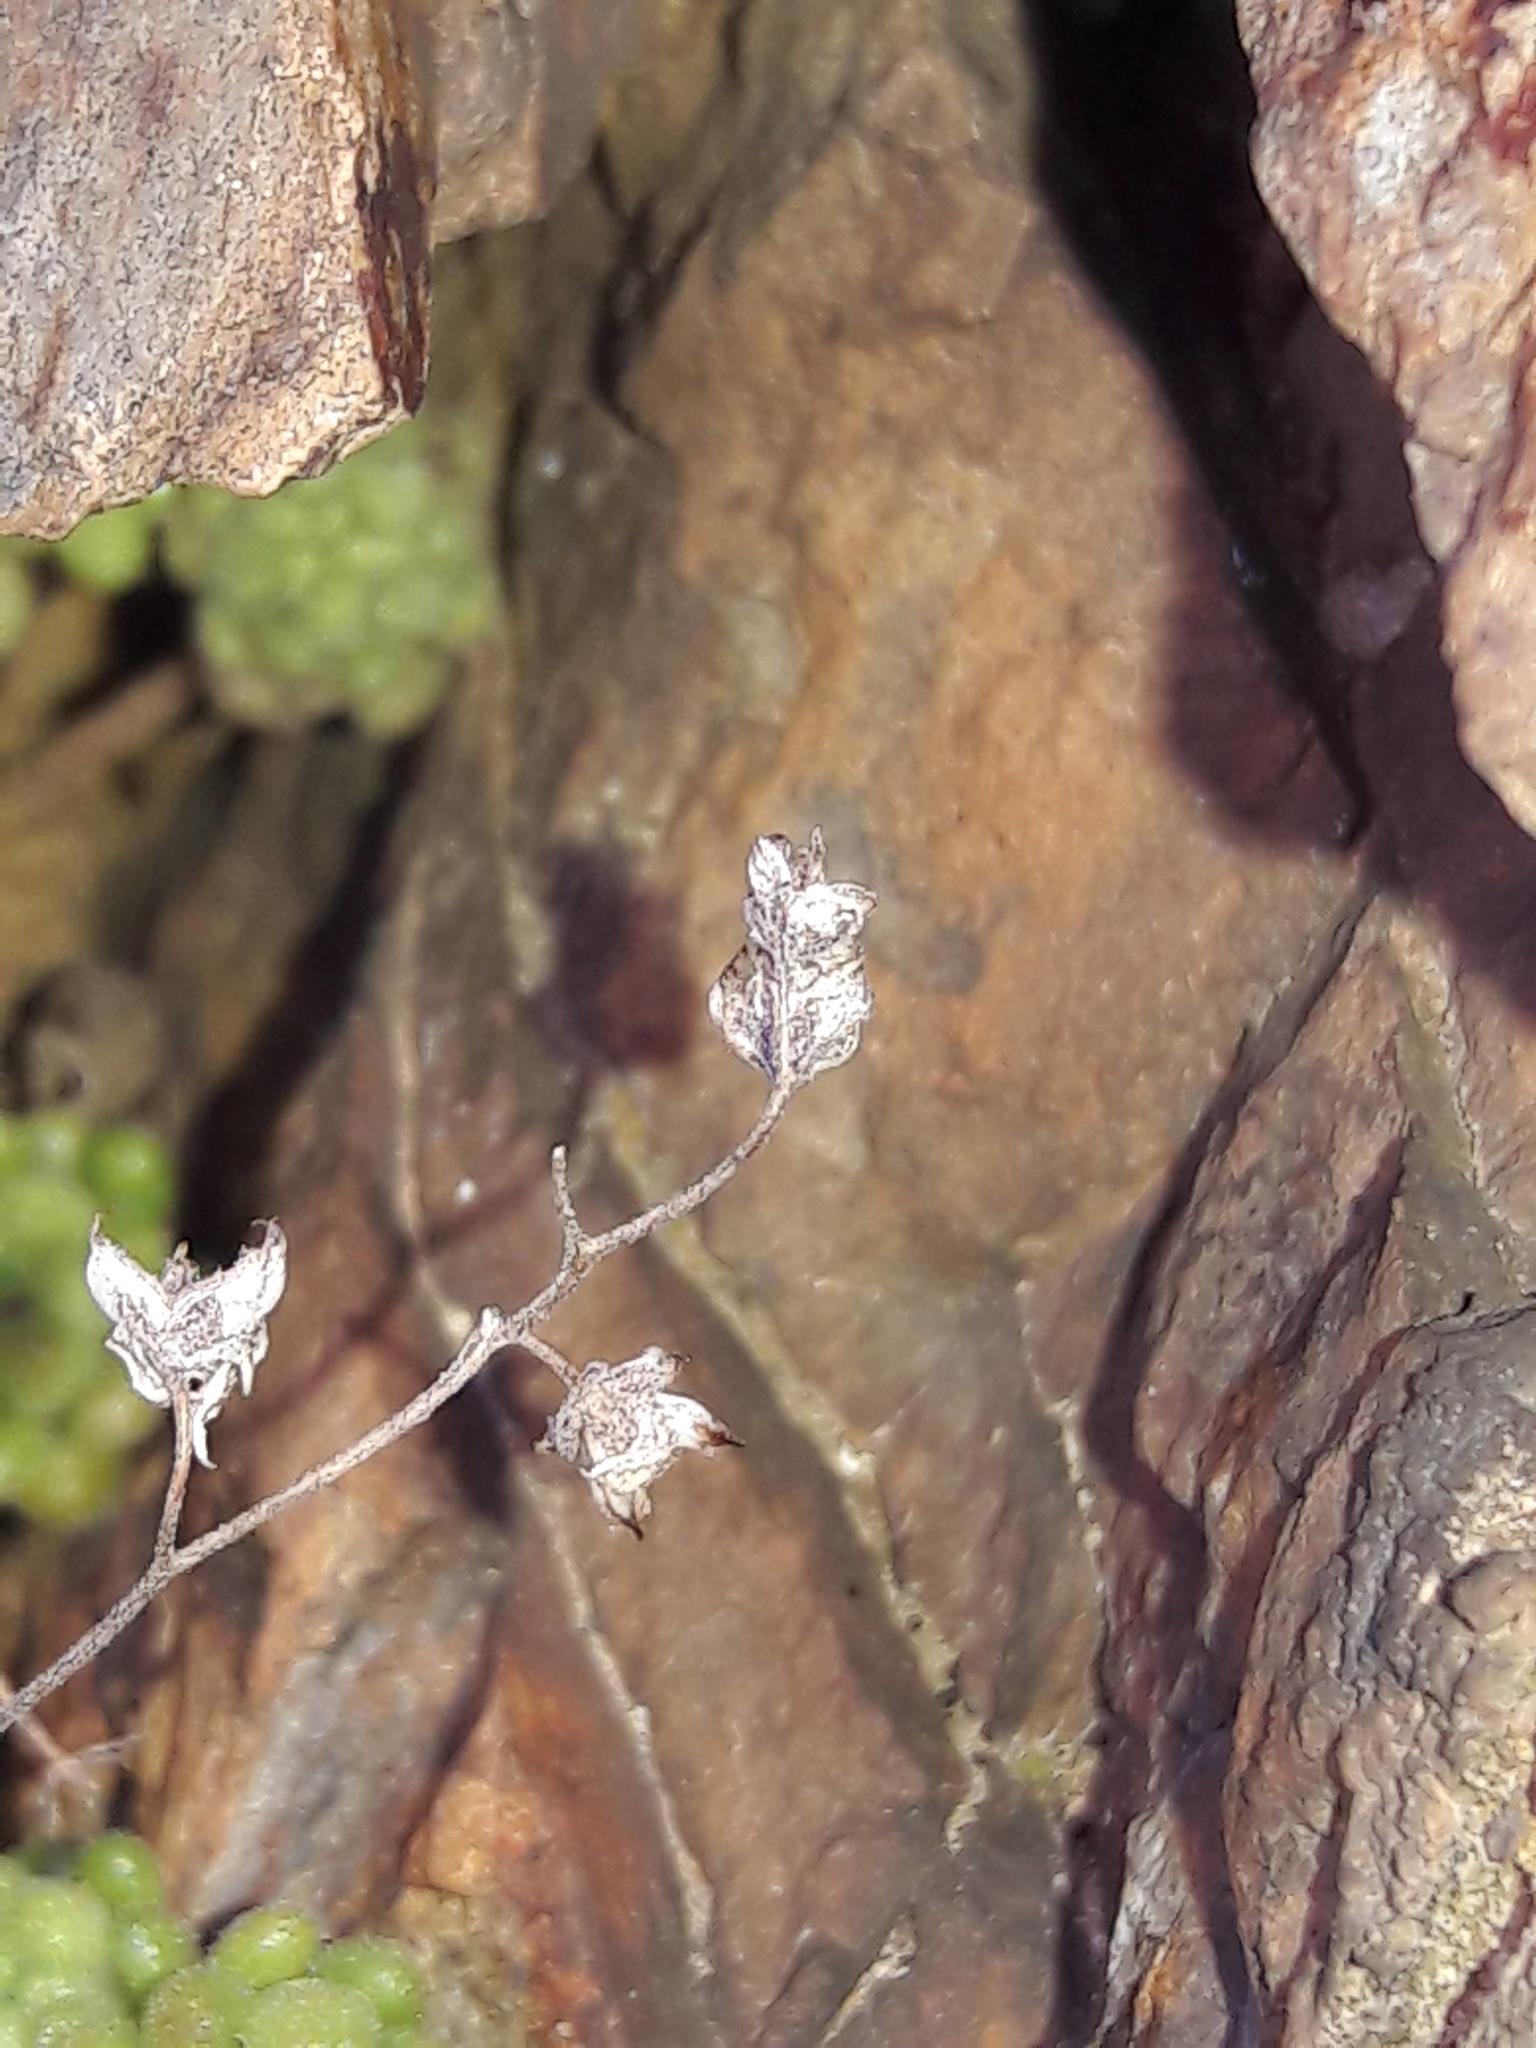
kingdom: Plantae
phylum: Tracheophyta
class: Magnoliopsida
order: Saxifragales
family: Crassulaceae
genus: Sedum
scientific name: Sedum hirsutum
